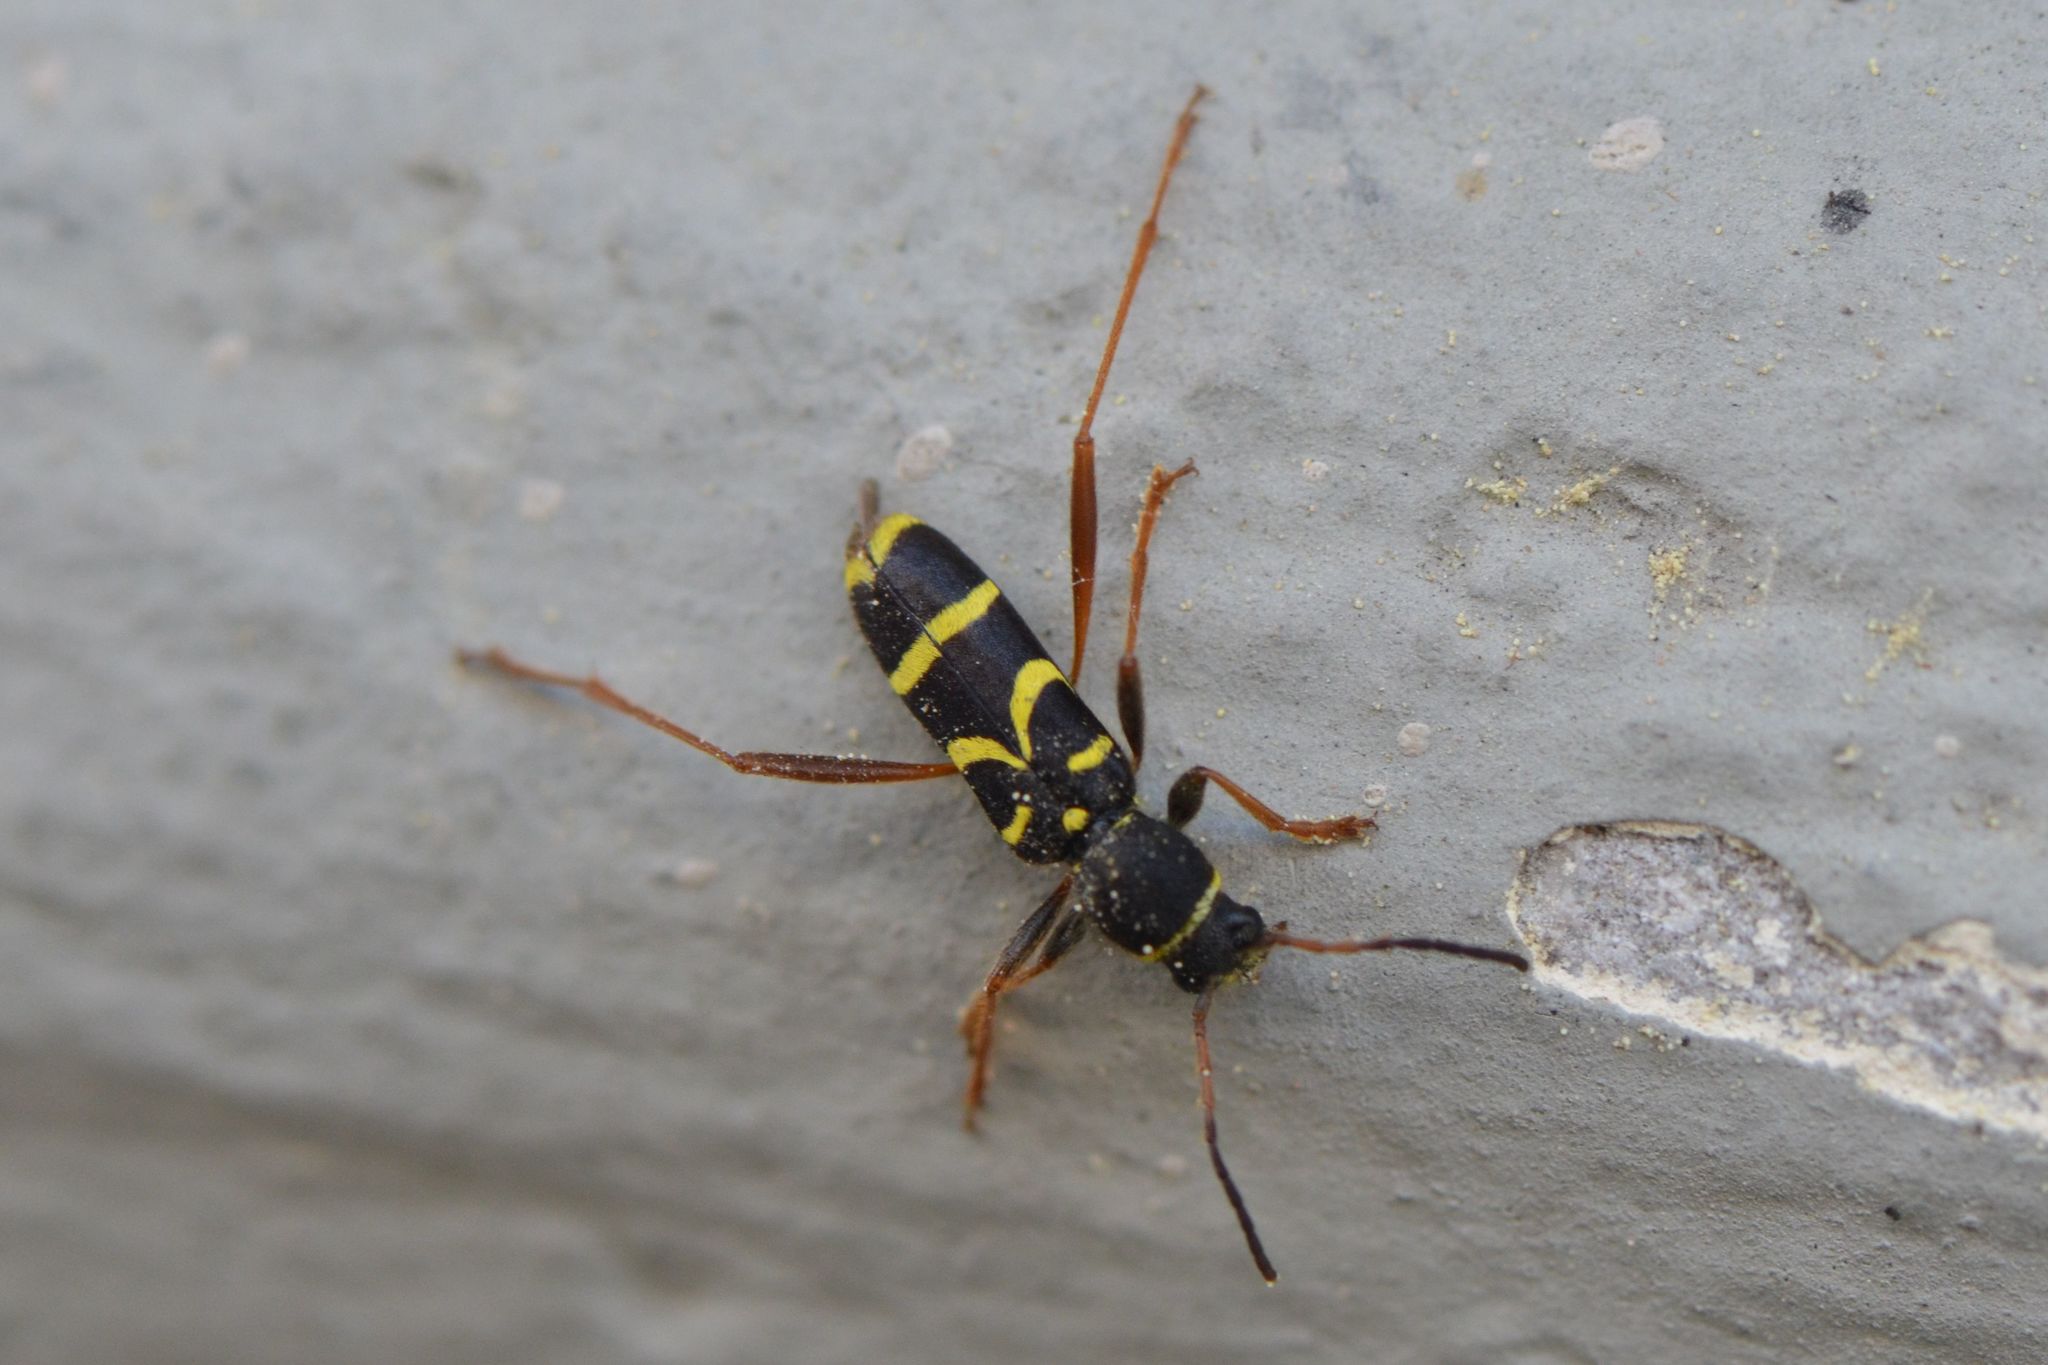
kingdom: Animalia
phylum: Arthropoda
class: Insecta
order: Coleoptera
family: Cerambycidae
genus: Clytus
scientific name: Clytus arietis
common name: Wasp beetle
